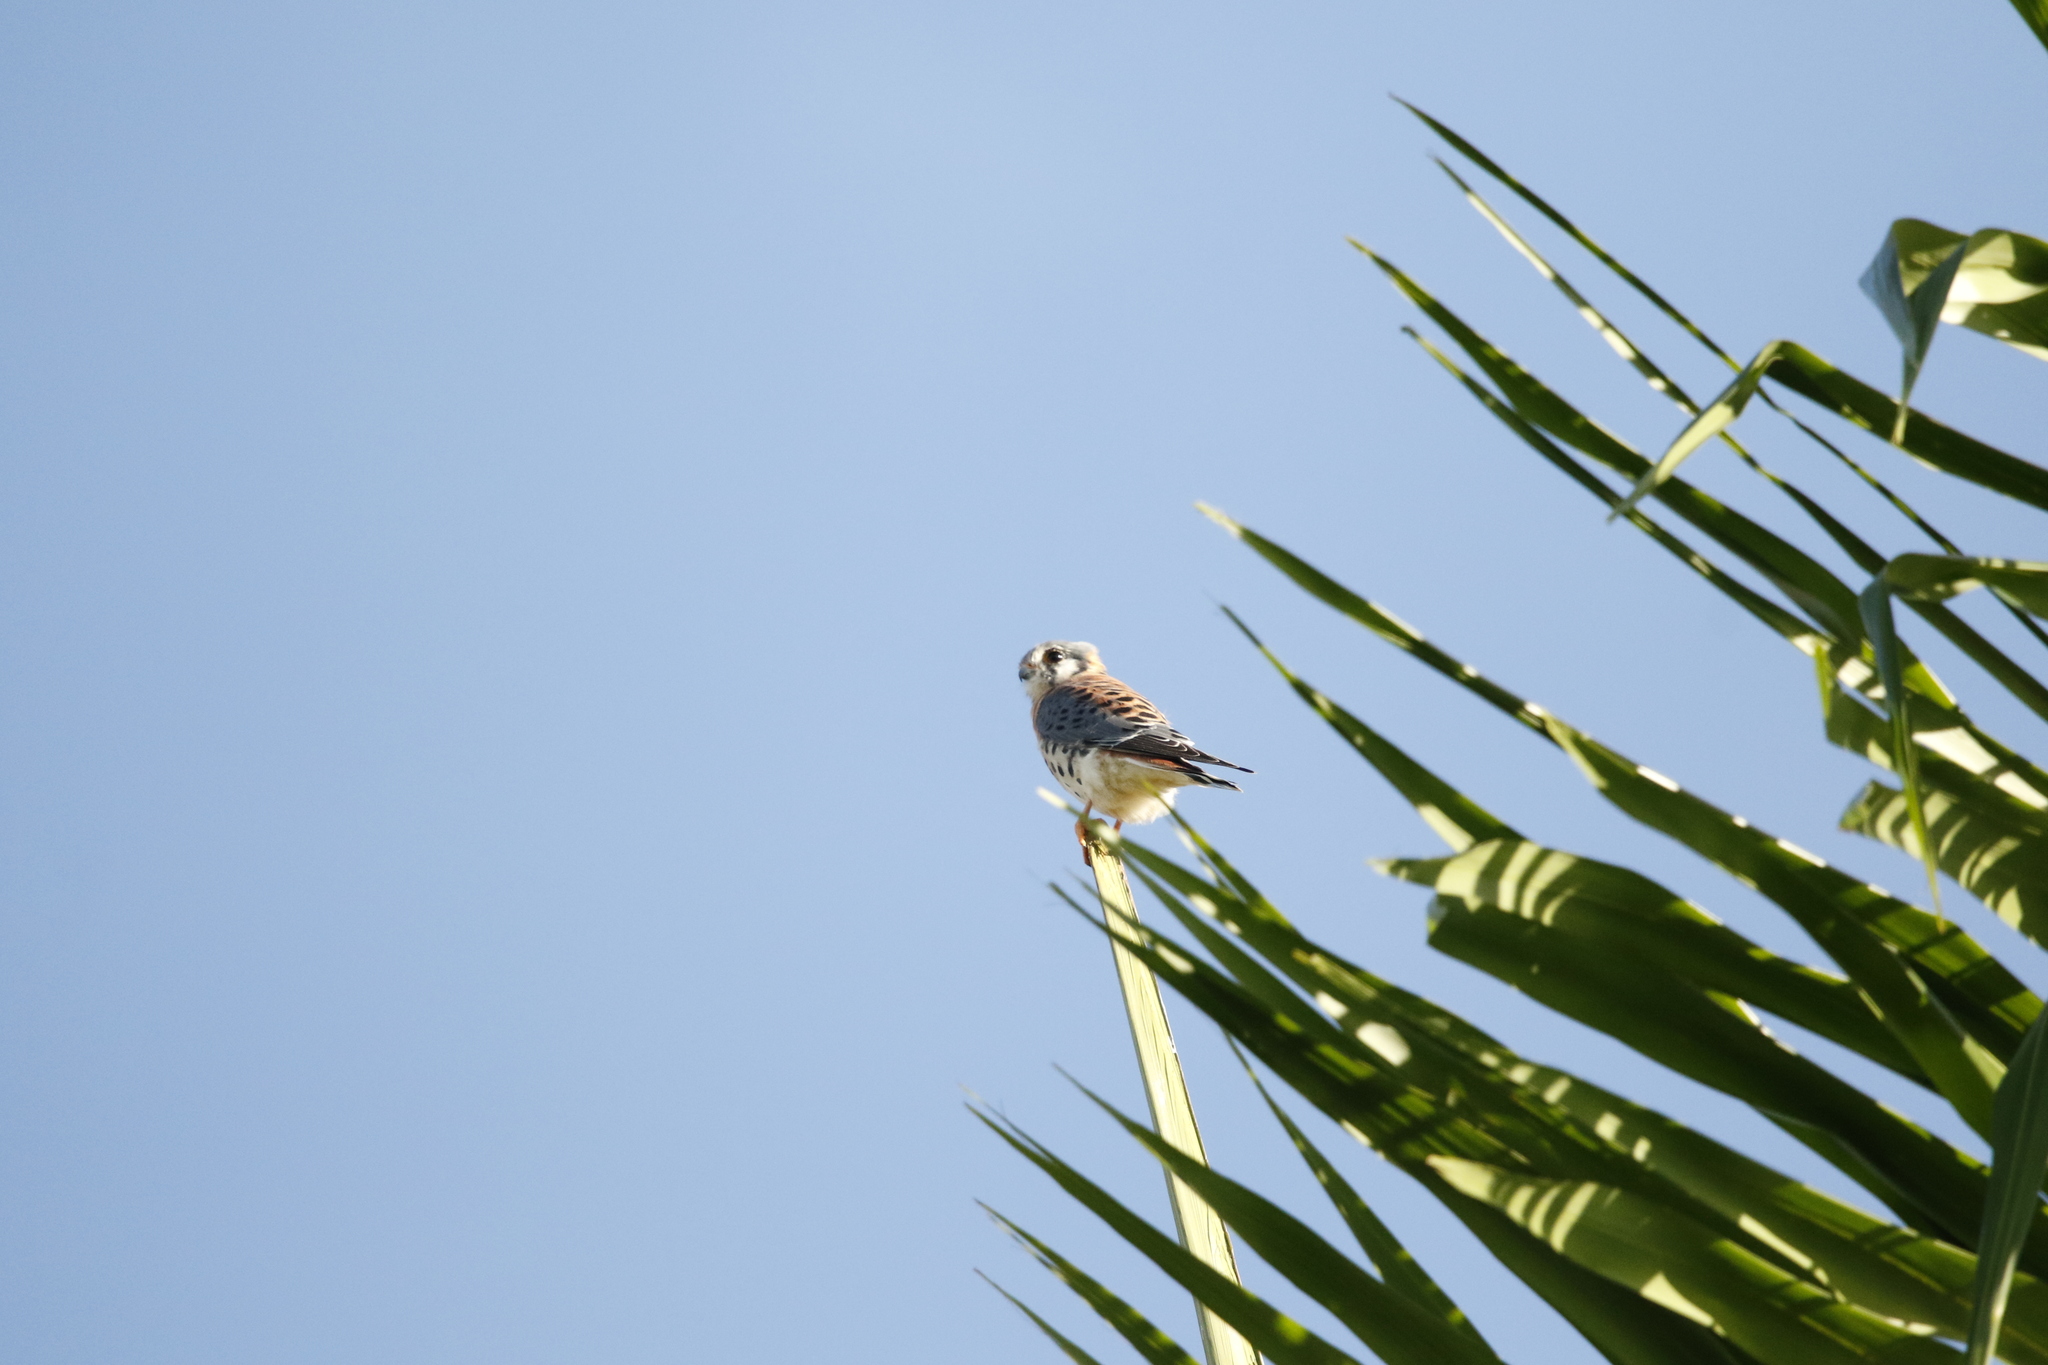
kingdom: Animalia
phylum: Chordata
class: Aves
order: Falconiformes
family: Falconidae
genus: Falco
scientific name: Falco sparverius
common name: American kestrel
